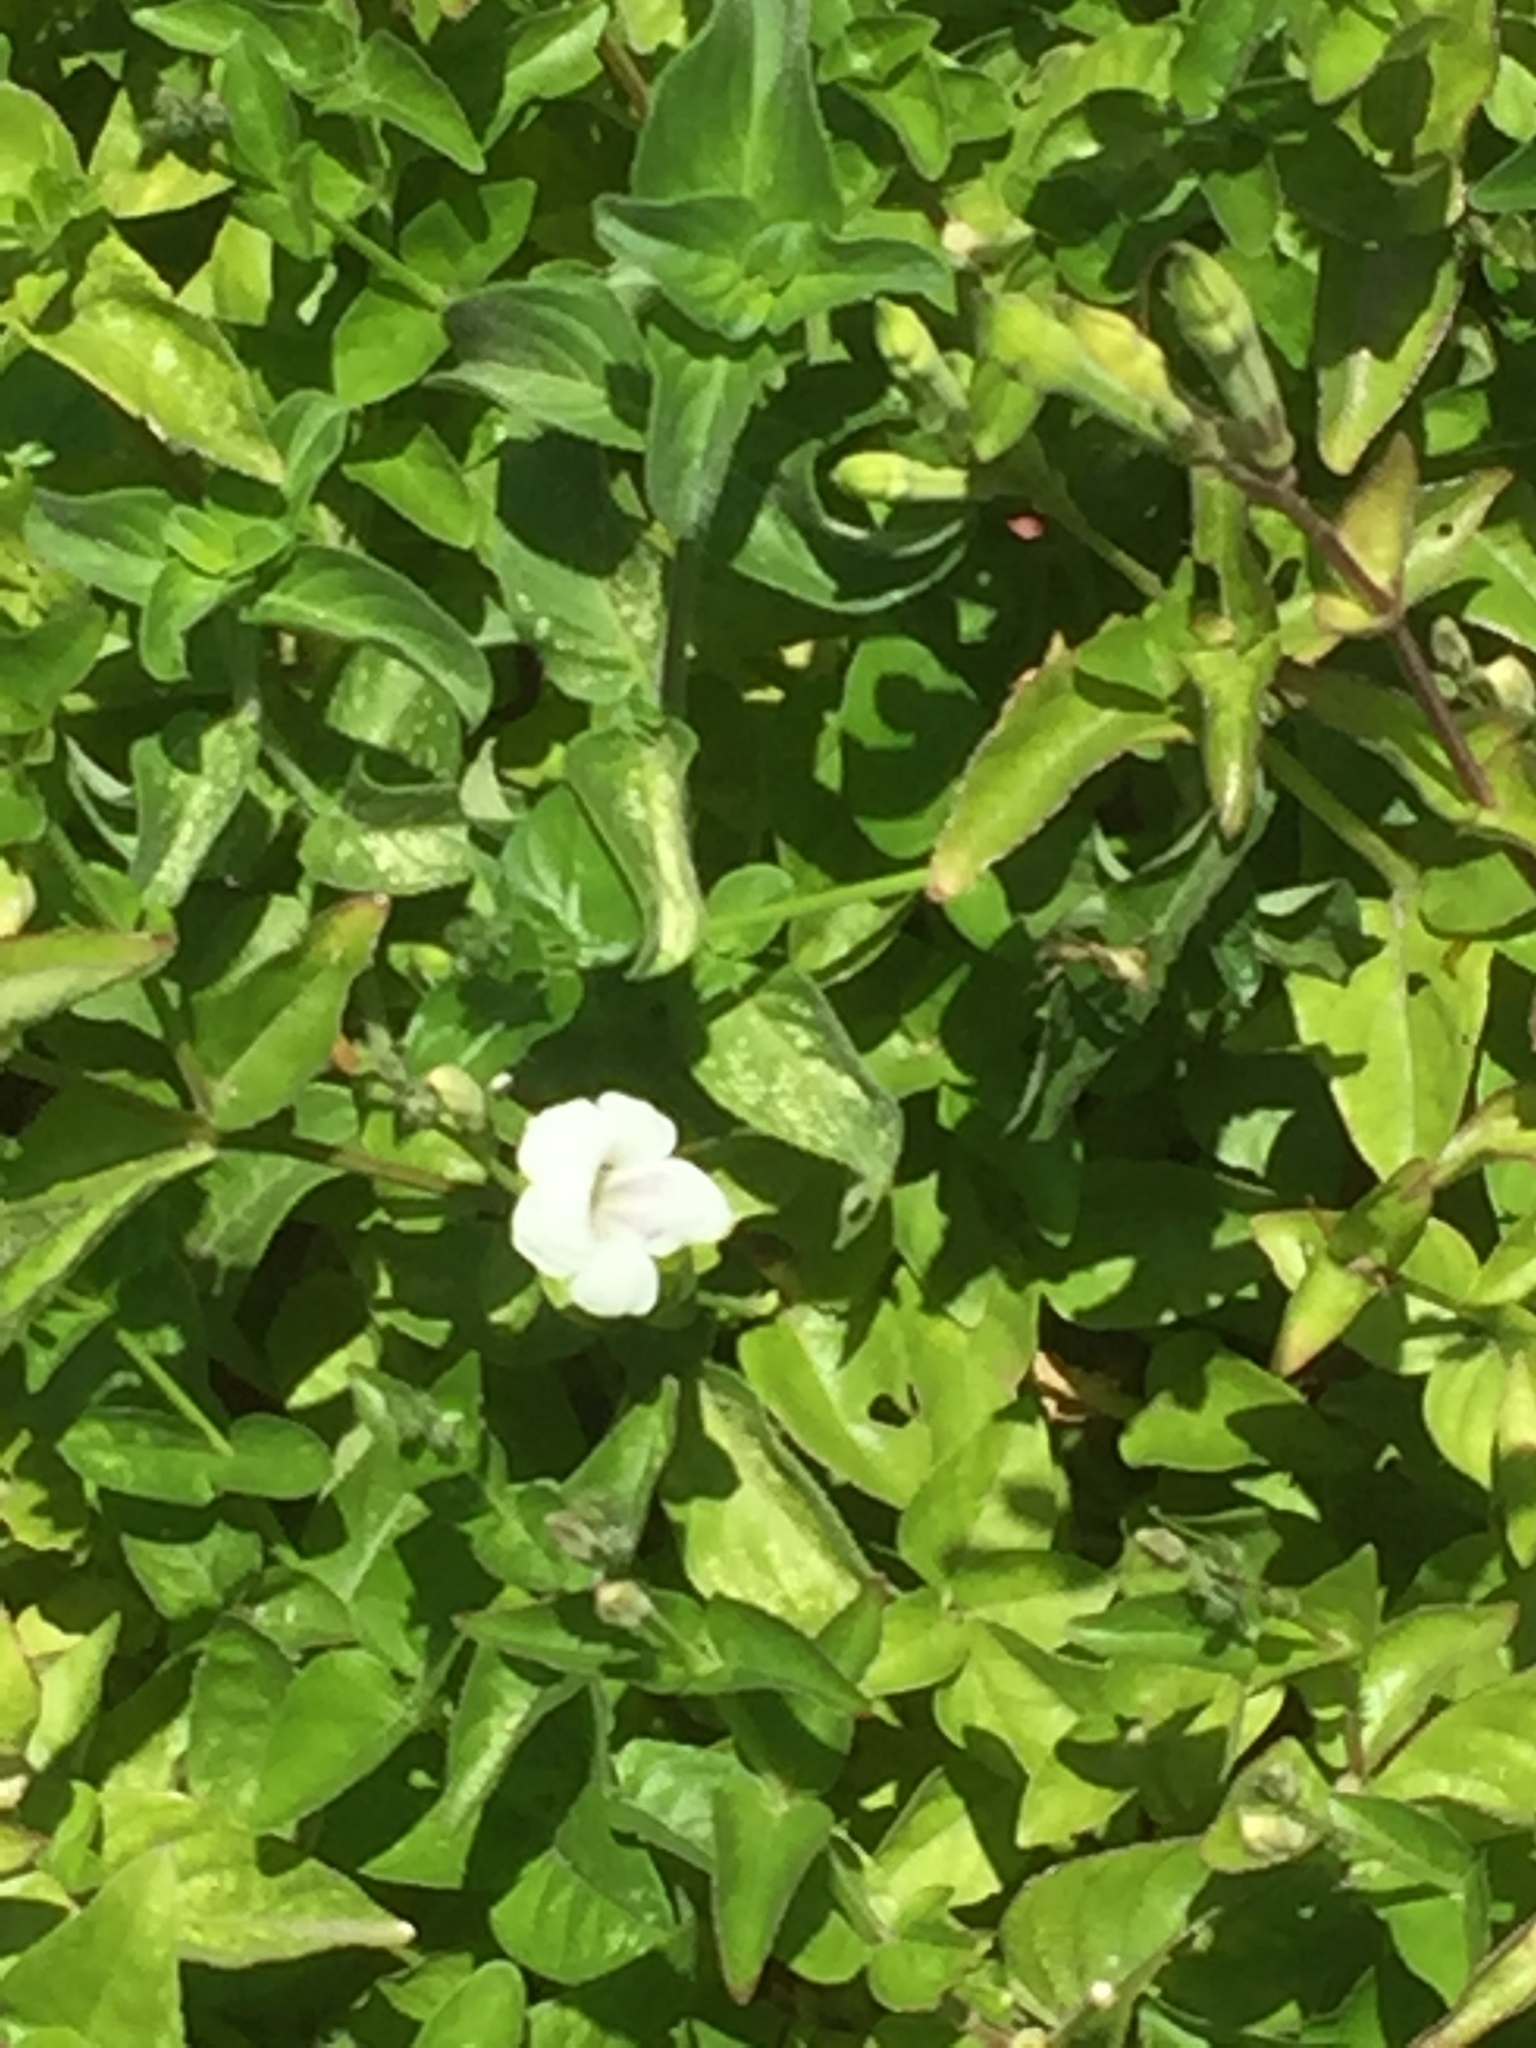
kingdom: Plantae
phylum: Tracheophyta
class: Magnoliopsida
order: Lamiales
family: Acanthaceae
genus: Asystasia
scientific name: Asystasia intrusa
